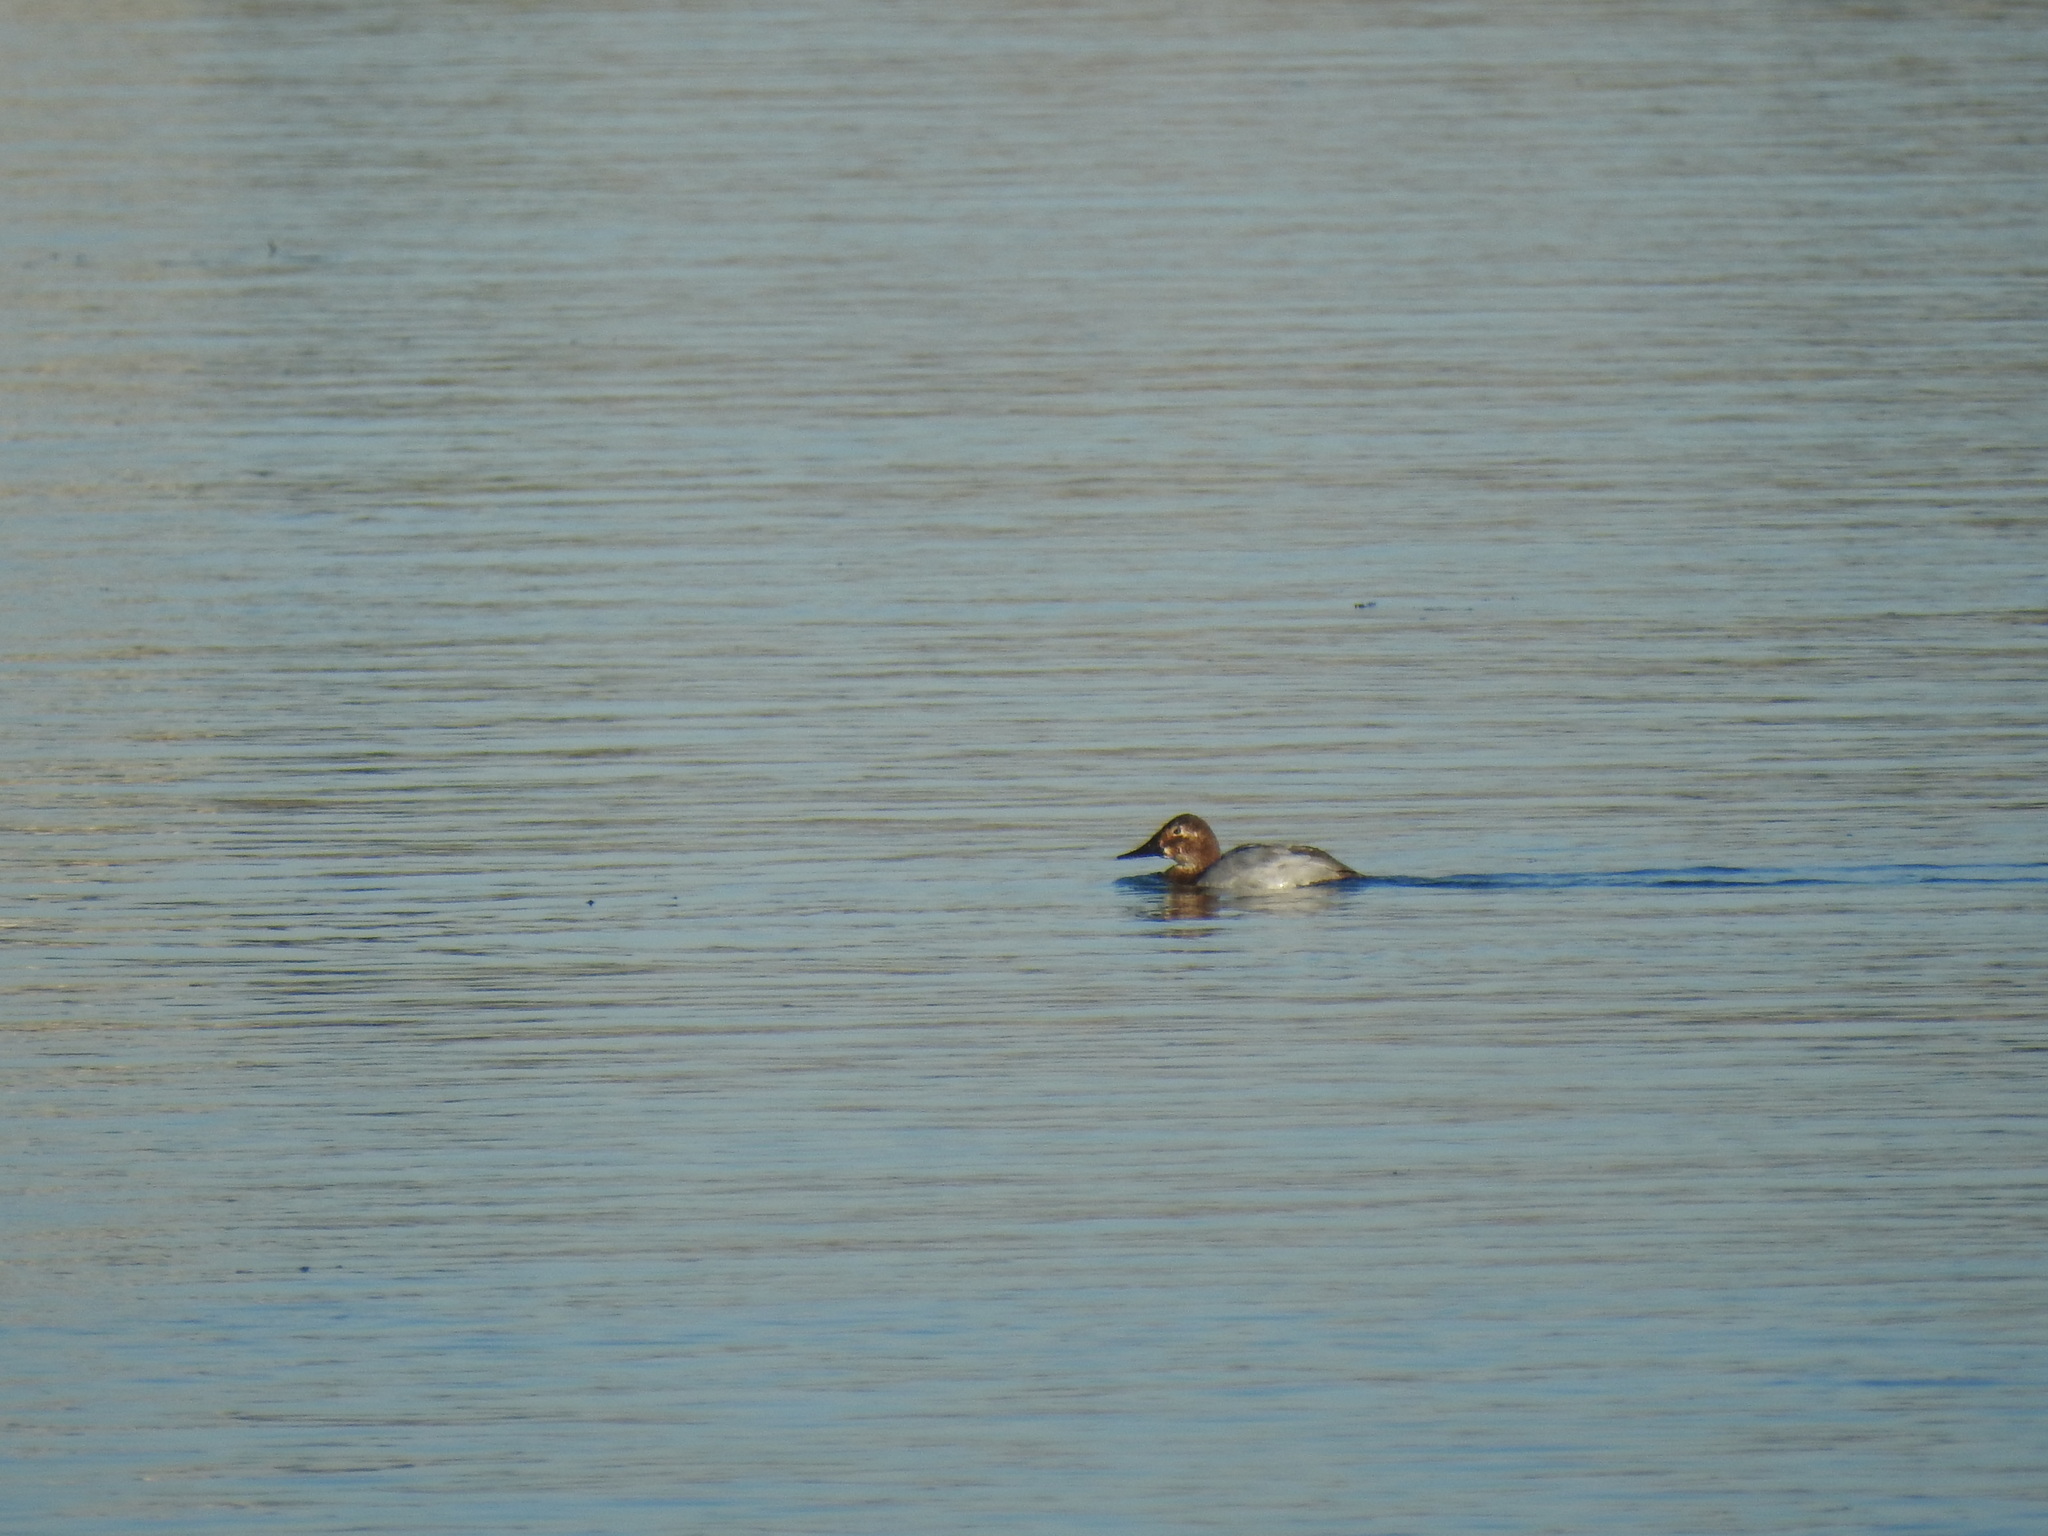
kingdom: Animalia
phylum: Chordata
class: Aves
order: Anseriformes
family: Anatidae
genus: Aythya
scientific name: Aythya valisineria
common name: Canvasback
